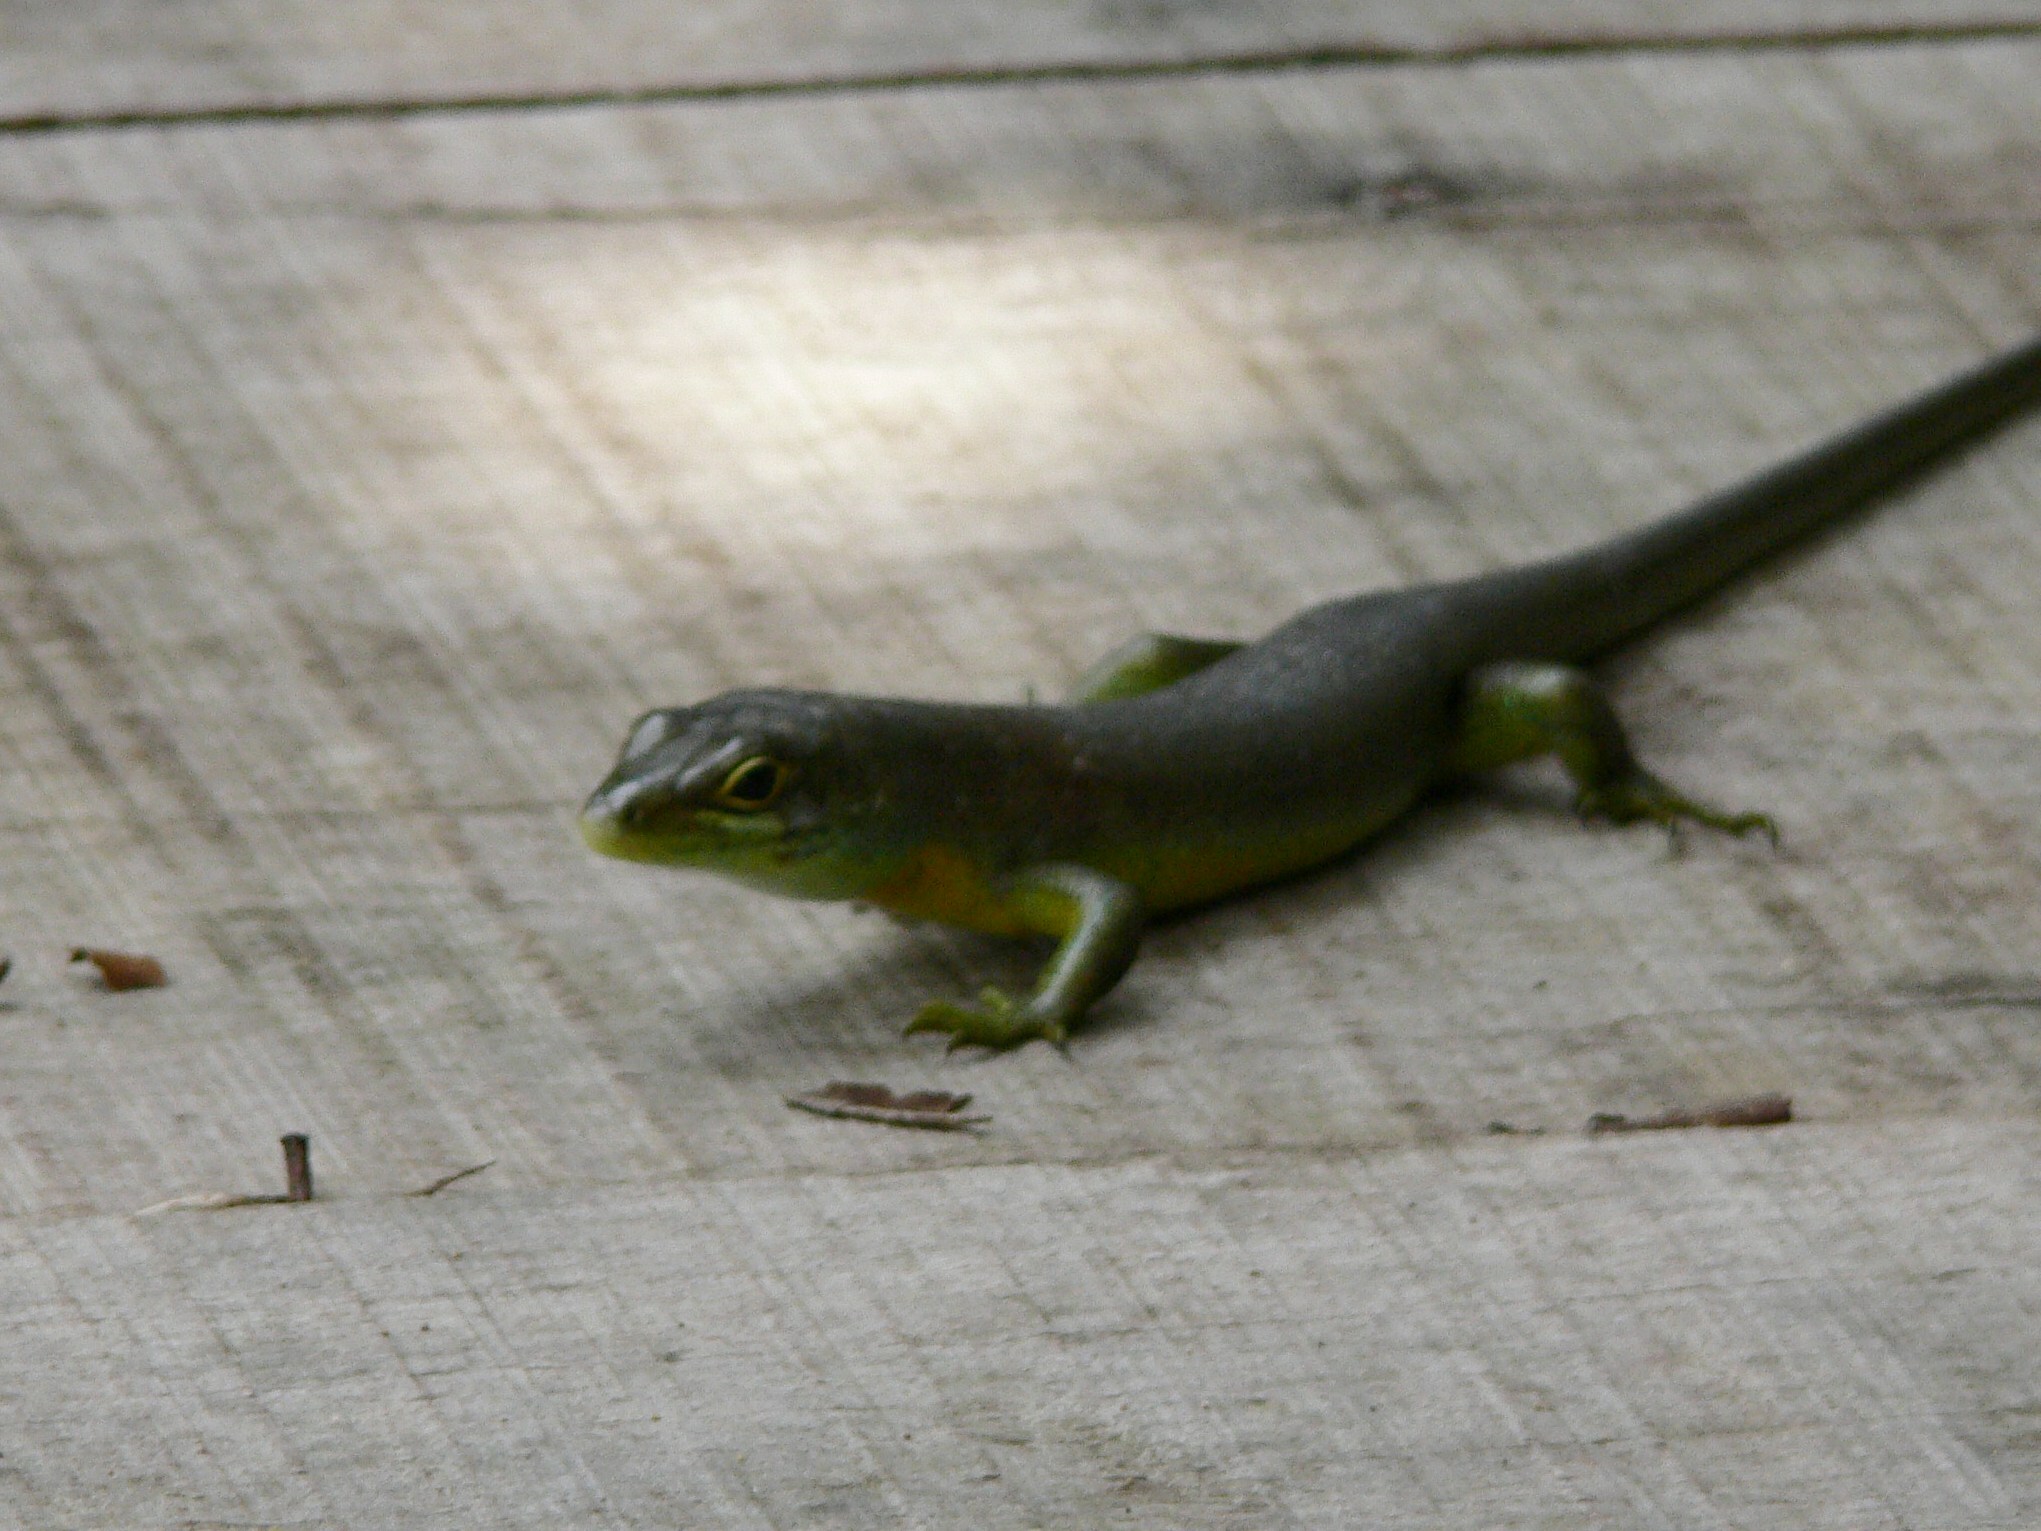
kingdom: Animalia
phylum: Chordata
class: Squamata
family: Scincidae
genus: Trachylepis
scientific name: Trachylepis makolowodei
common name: Makolowodé’s trachylepis
